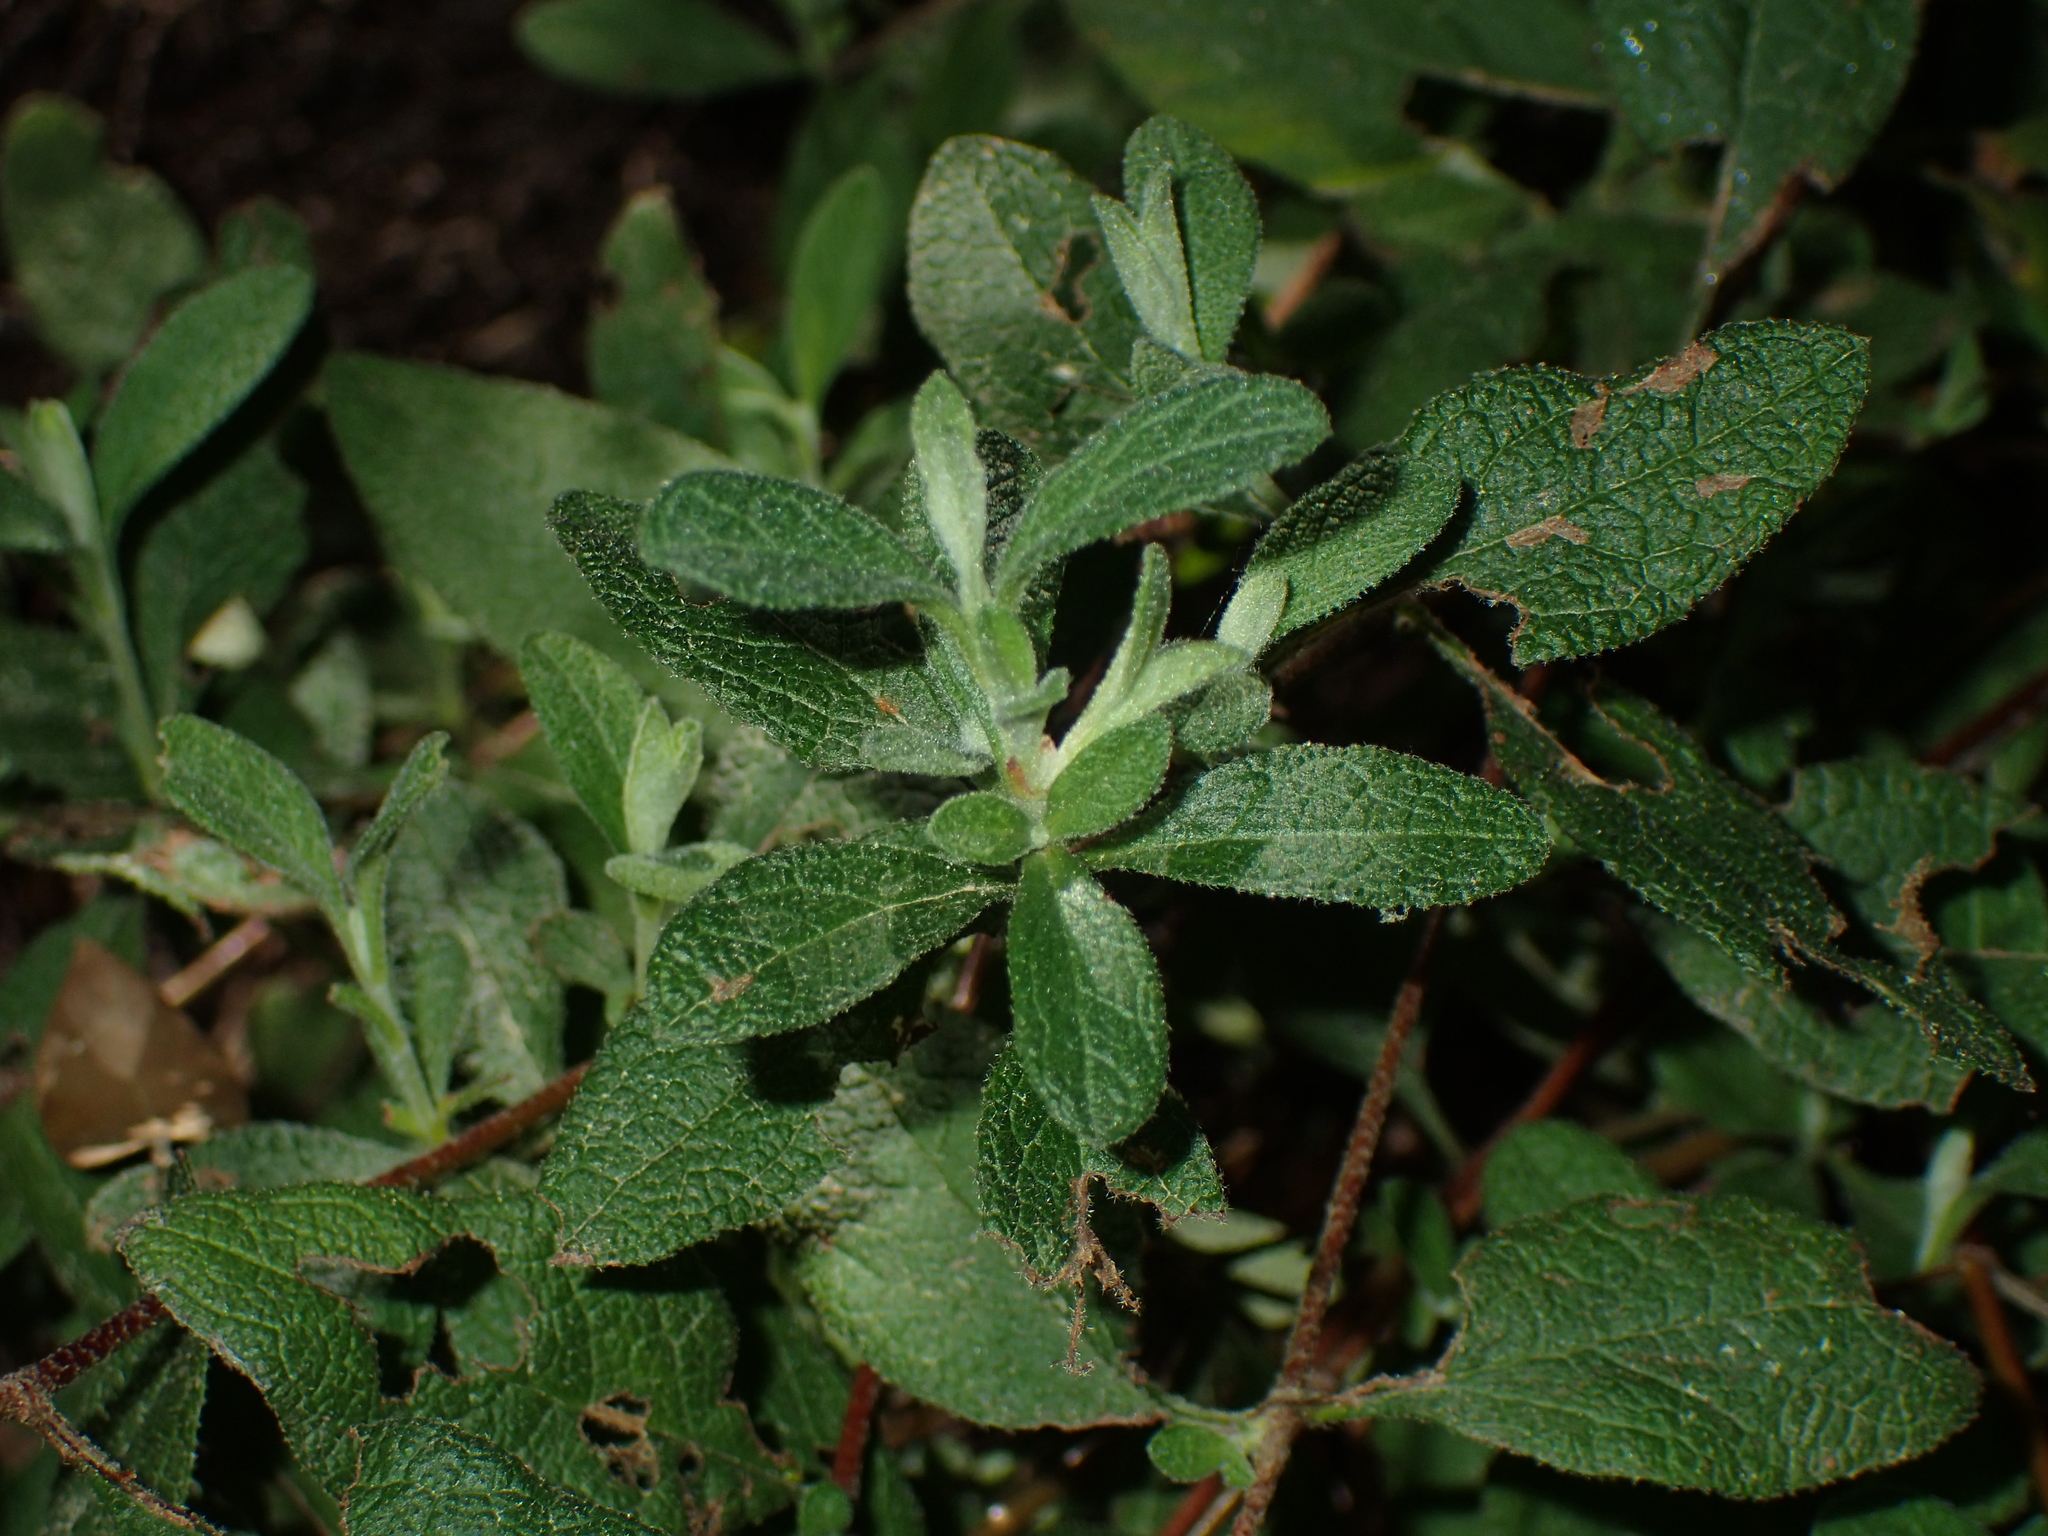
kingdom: Plantae
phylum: Tracheophyta
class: Magnoliopsida
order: Malvales
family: Cistaceae
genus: Cistus
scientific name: Cistus salviifolius
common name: Salvia cistus
